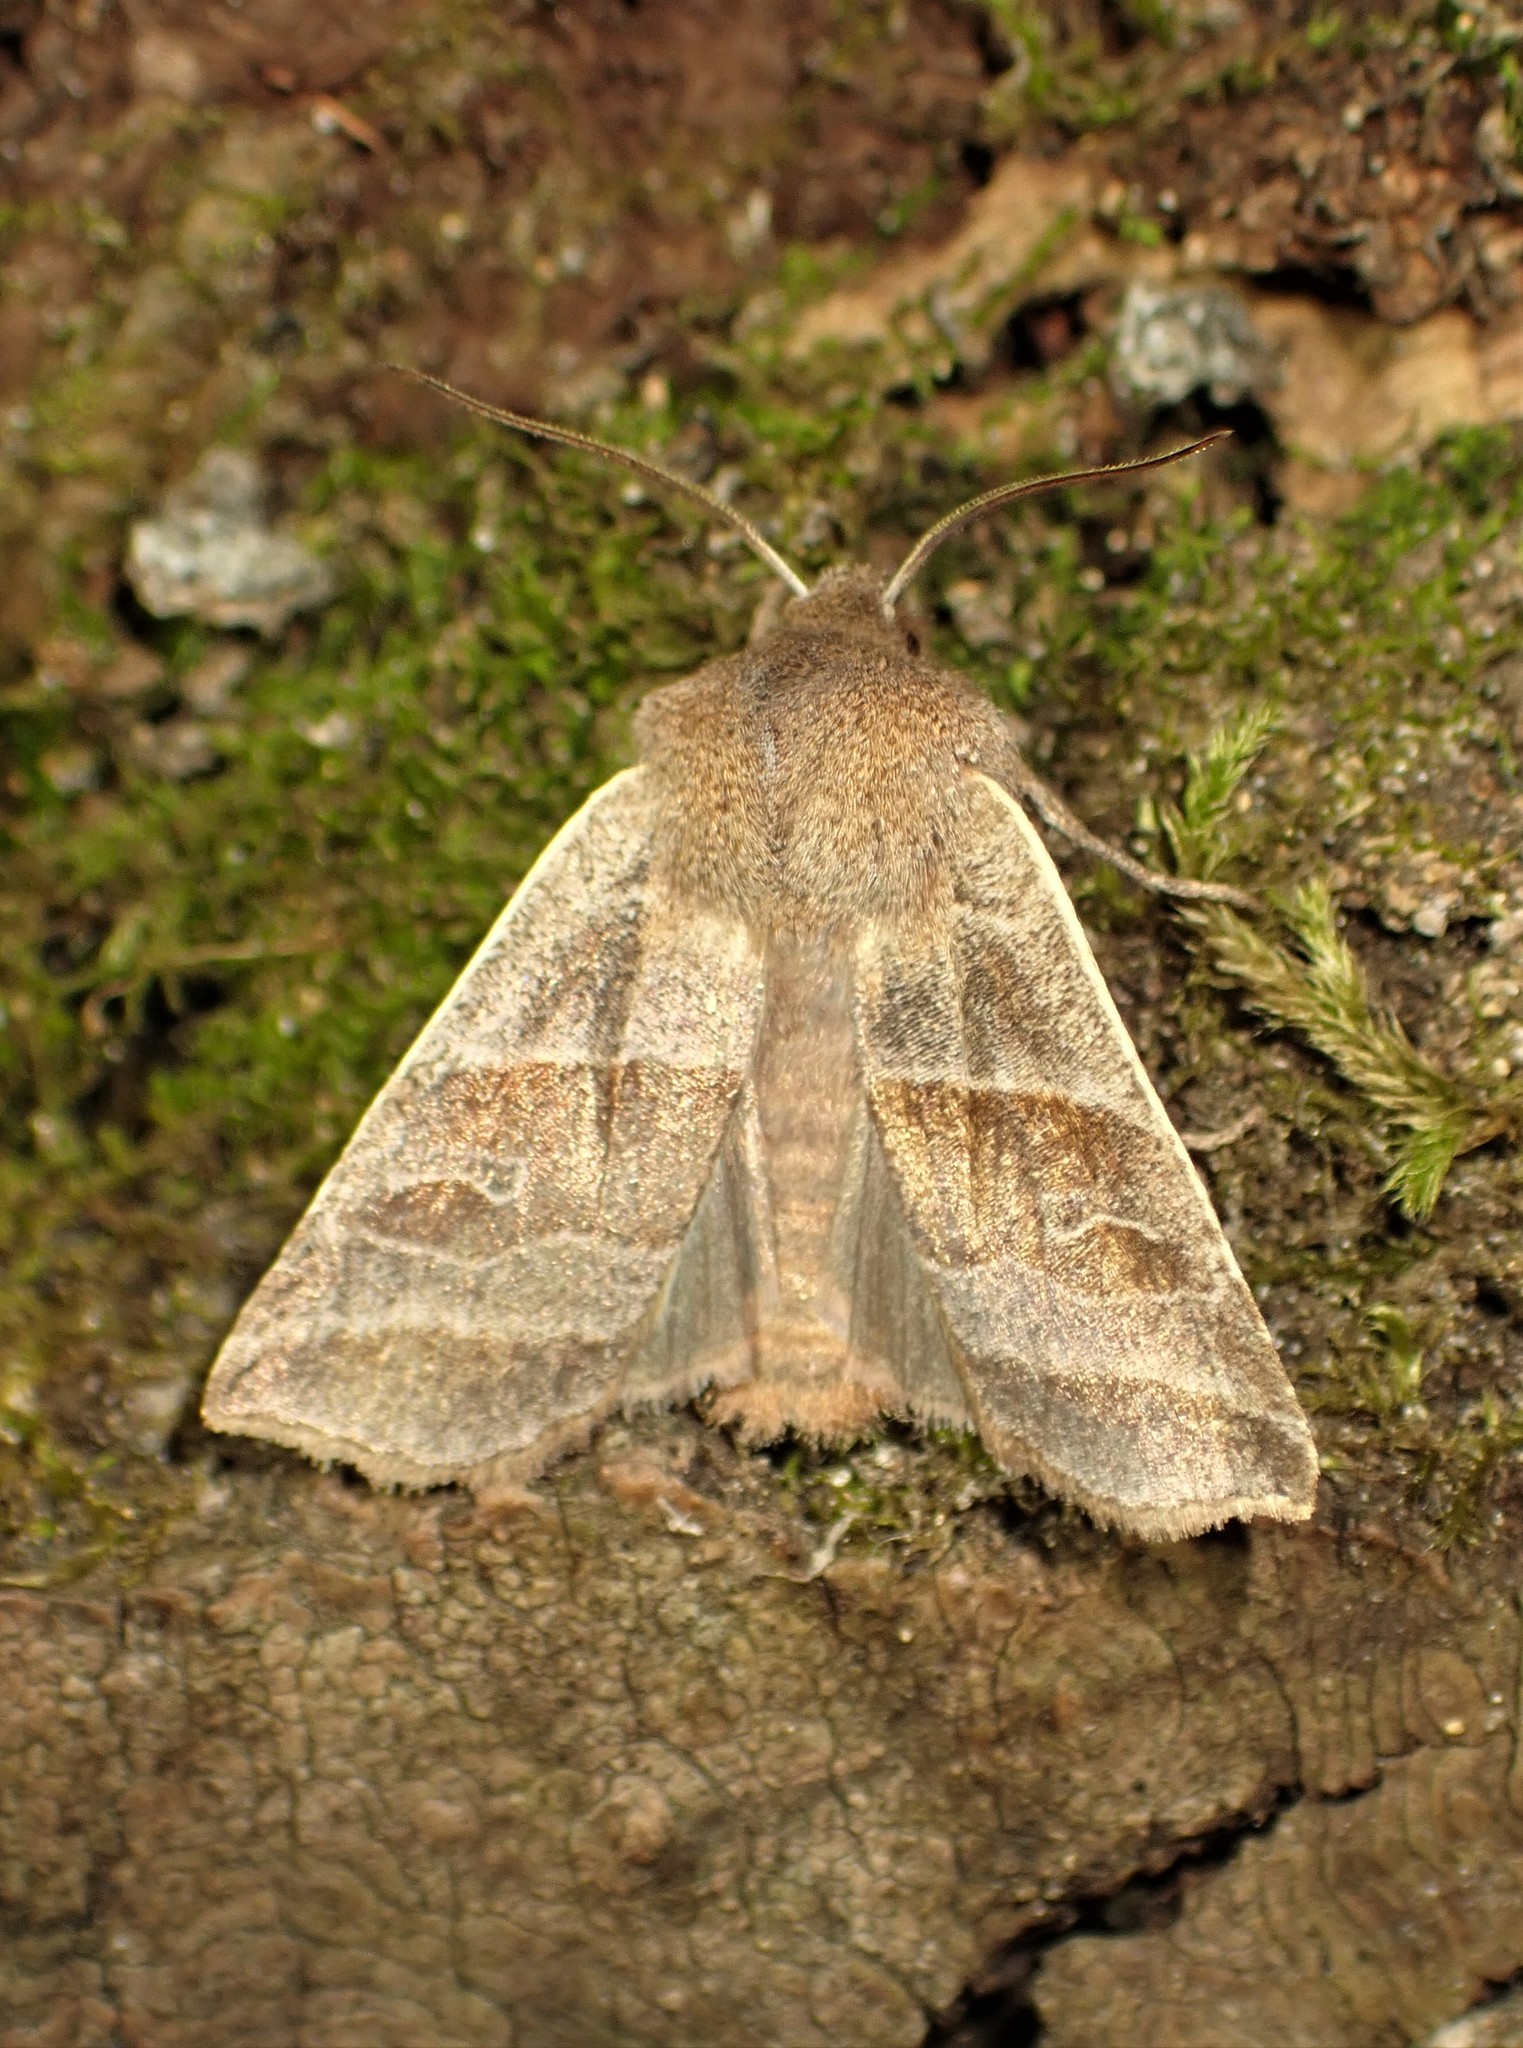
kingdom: Animalia
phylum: Arthropoda
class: Insecta
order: Lepidoptera
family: Noctuidae
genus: Eupsilia
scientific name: Eupsilia devia
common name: Lost sallow
